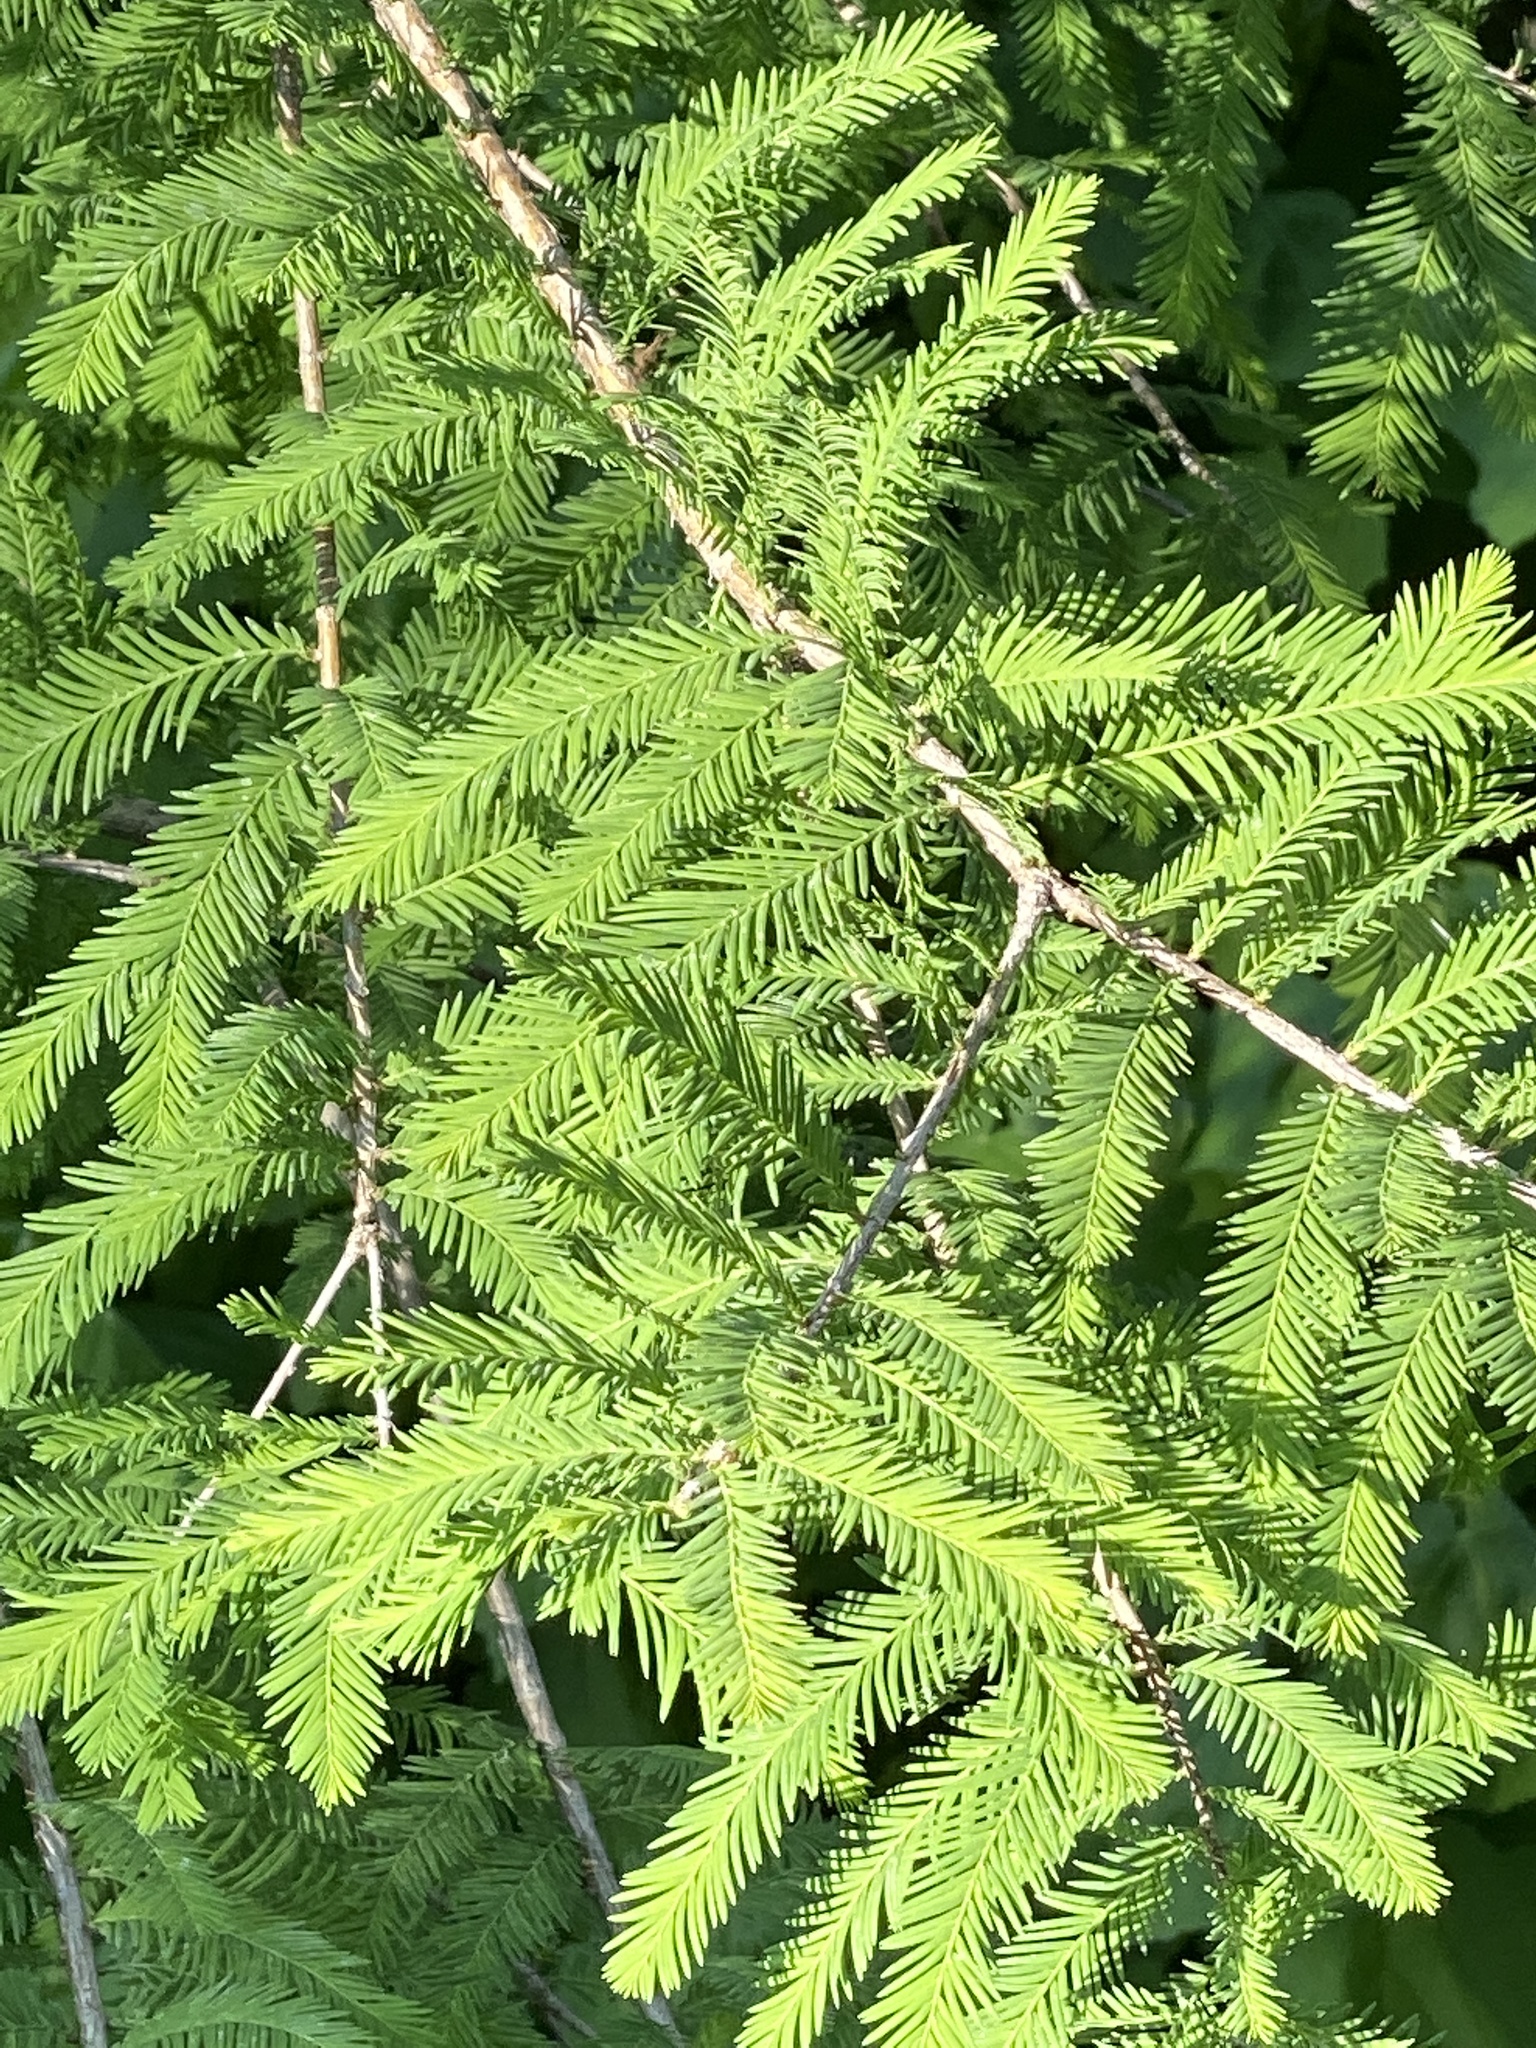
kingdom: Plantae
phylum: Tracheophyta
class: Pinopsida
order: Pinales
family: Cupressaceae
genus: Taxodium
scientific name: Taxodium distichum
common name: Bald cypress
